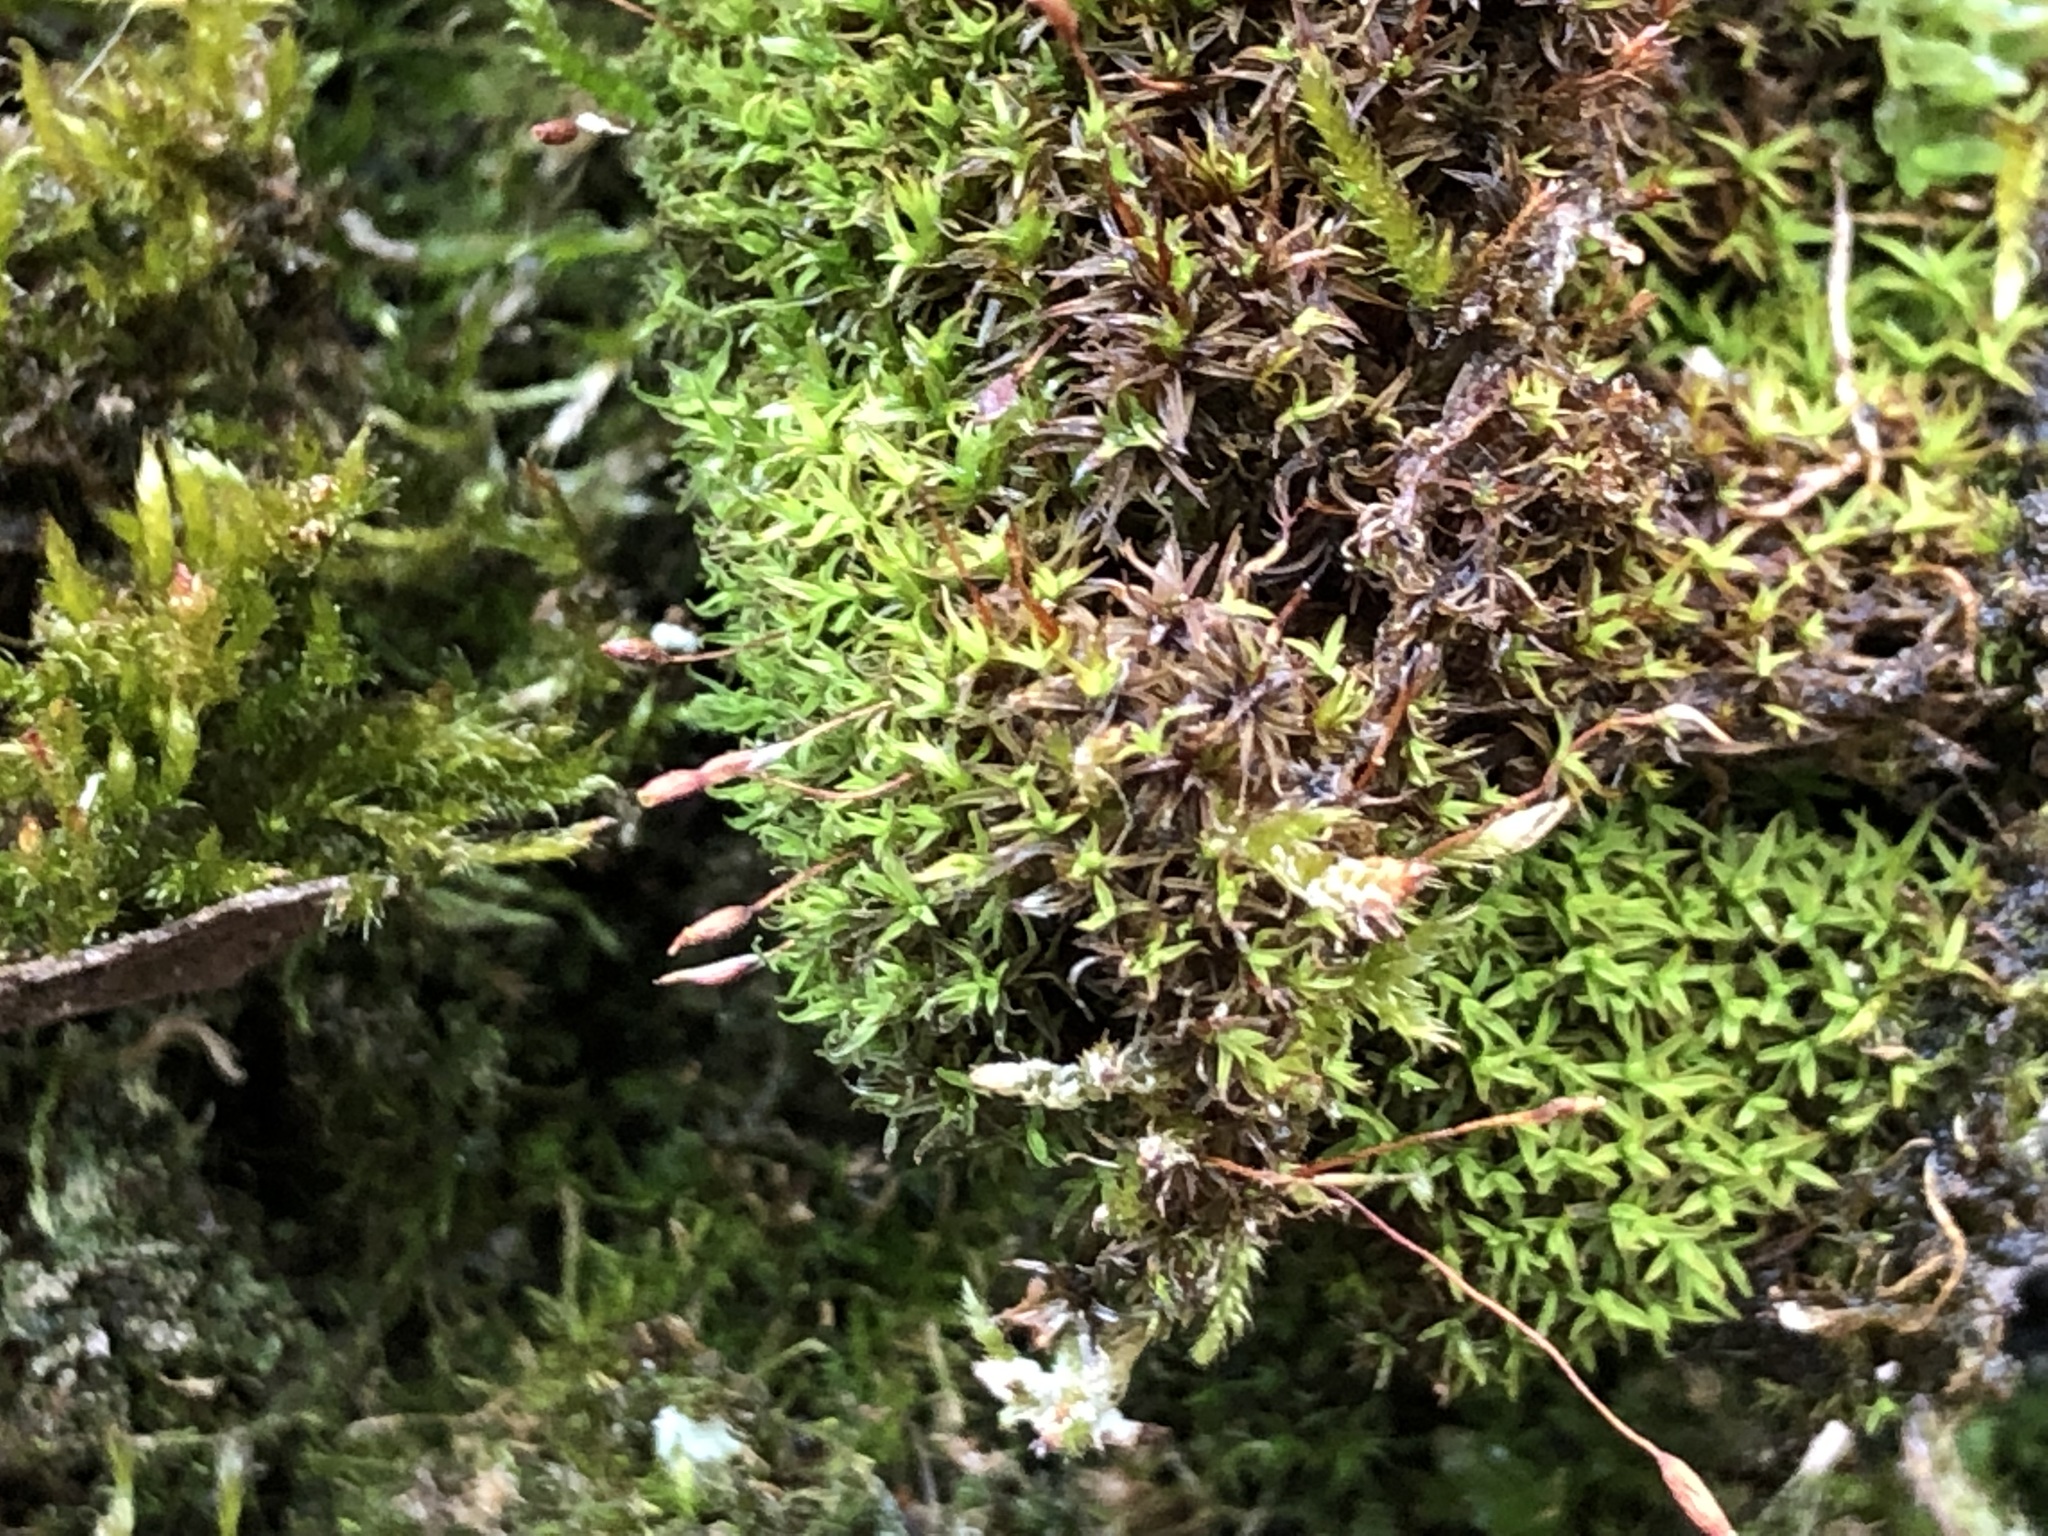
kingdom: Plantae
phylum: Bryophyta
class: Bryopsida
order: Pottiales
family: Pottiaceae
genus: Bryoerythrophyllum
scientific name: Bryoerythrophyllum recurvirostrum
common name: Red beard moss
